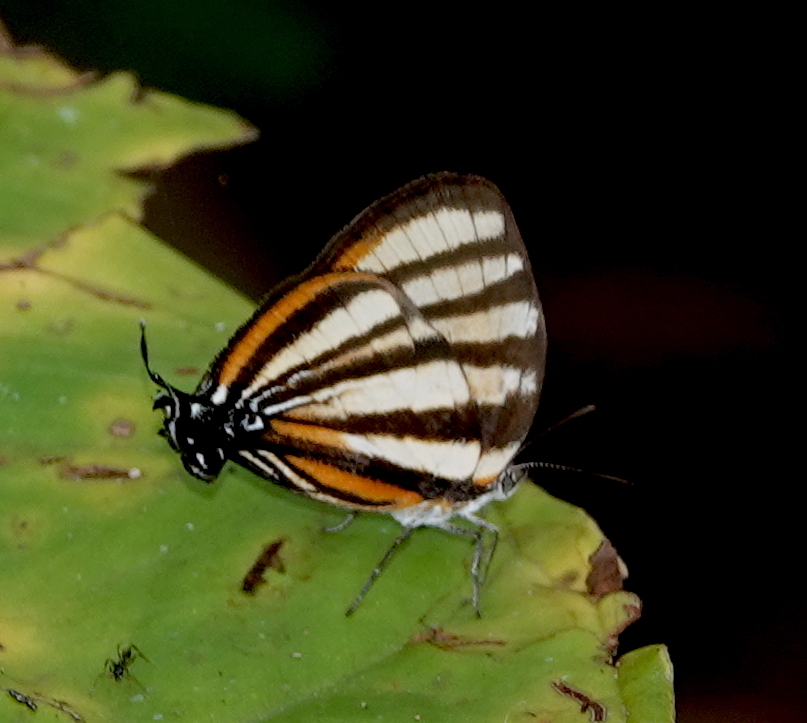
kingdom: Animalia
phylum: Arthropoda
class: Insecta
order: Lepidoptera
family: Lycaenidae
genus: Arawacus
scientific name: Arawacus separata
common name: Separated stripestreak
